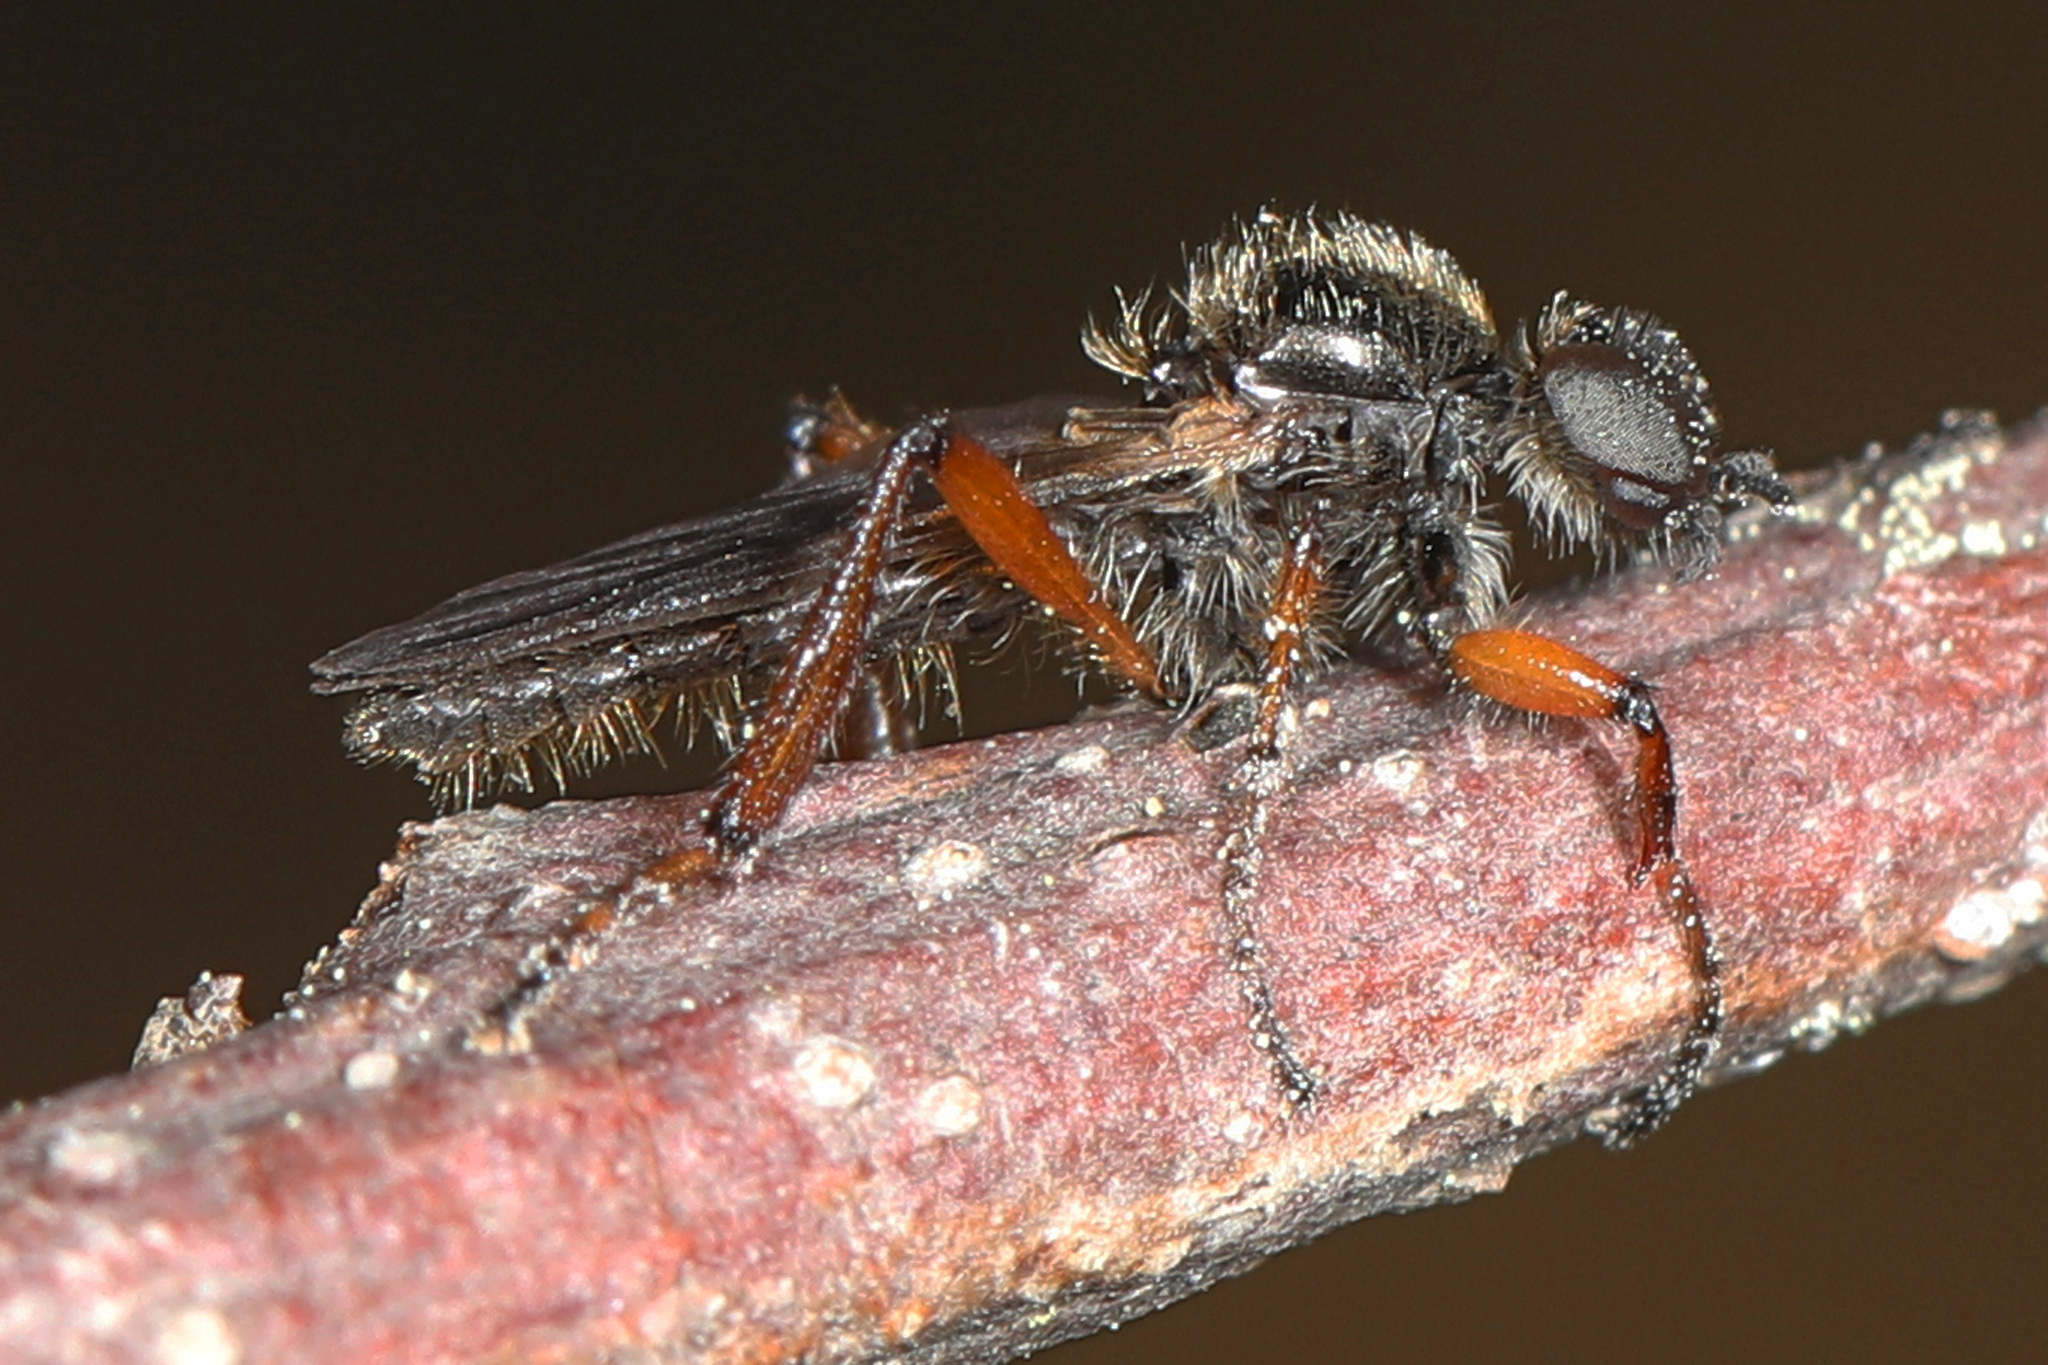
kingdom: Animalia
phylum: Arthropoda
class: Insecta
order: Diptera
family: Bibionidae
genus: Bibio
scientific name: Bibio xanthopus
